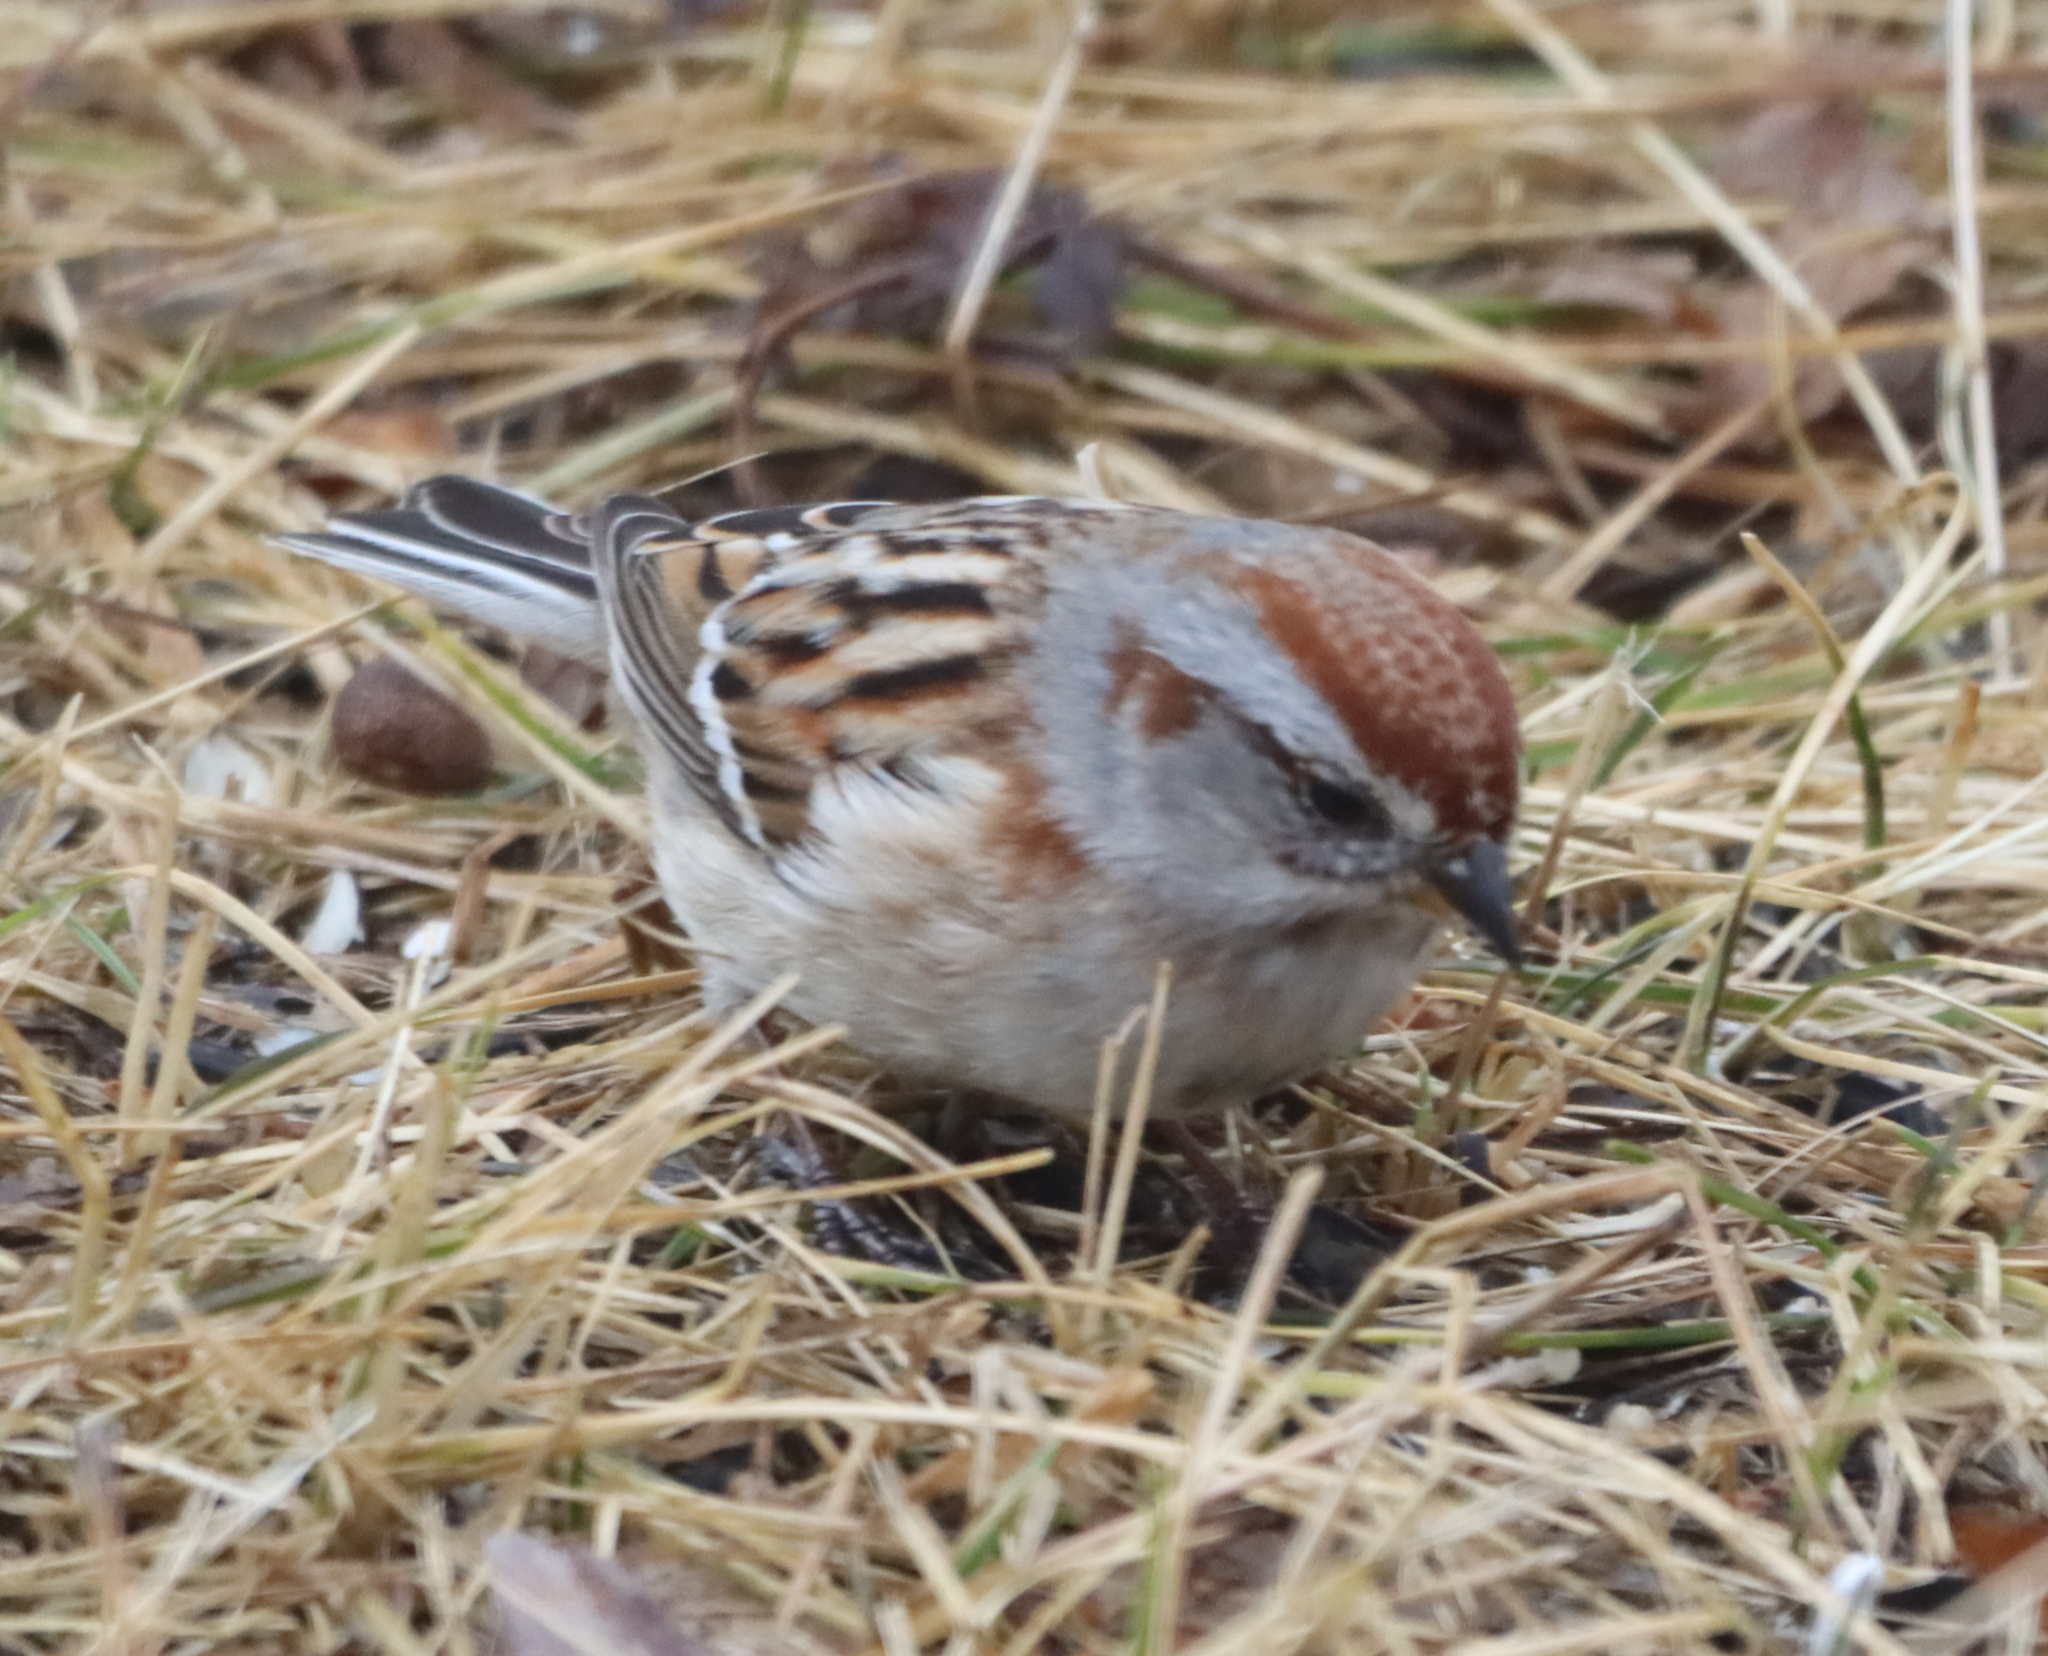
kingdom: Animalia
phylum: Chordata
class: Aves
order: Passeriformes
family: Passerellidae
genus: Spizelloides
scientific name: Spizelloides arborea
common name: American tree sparrow
